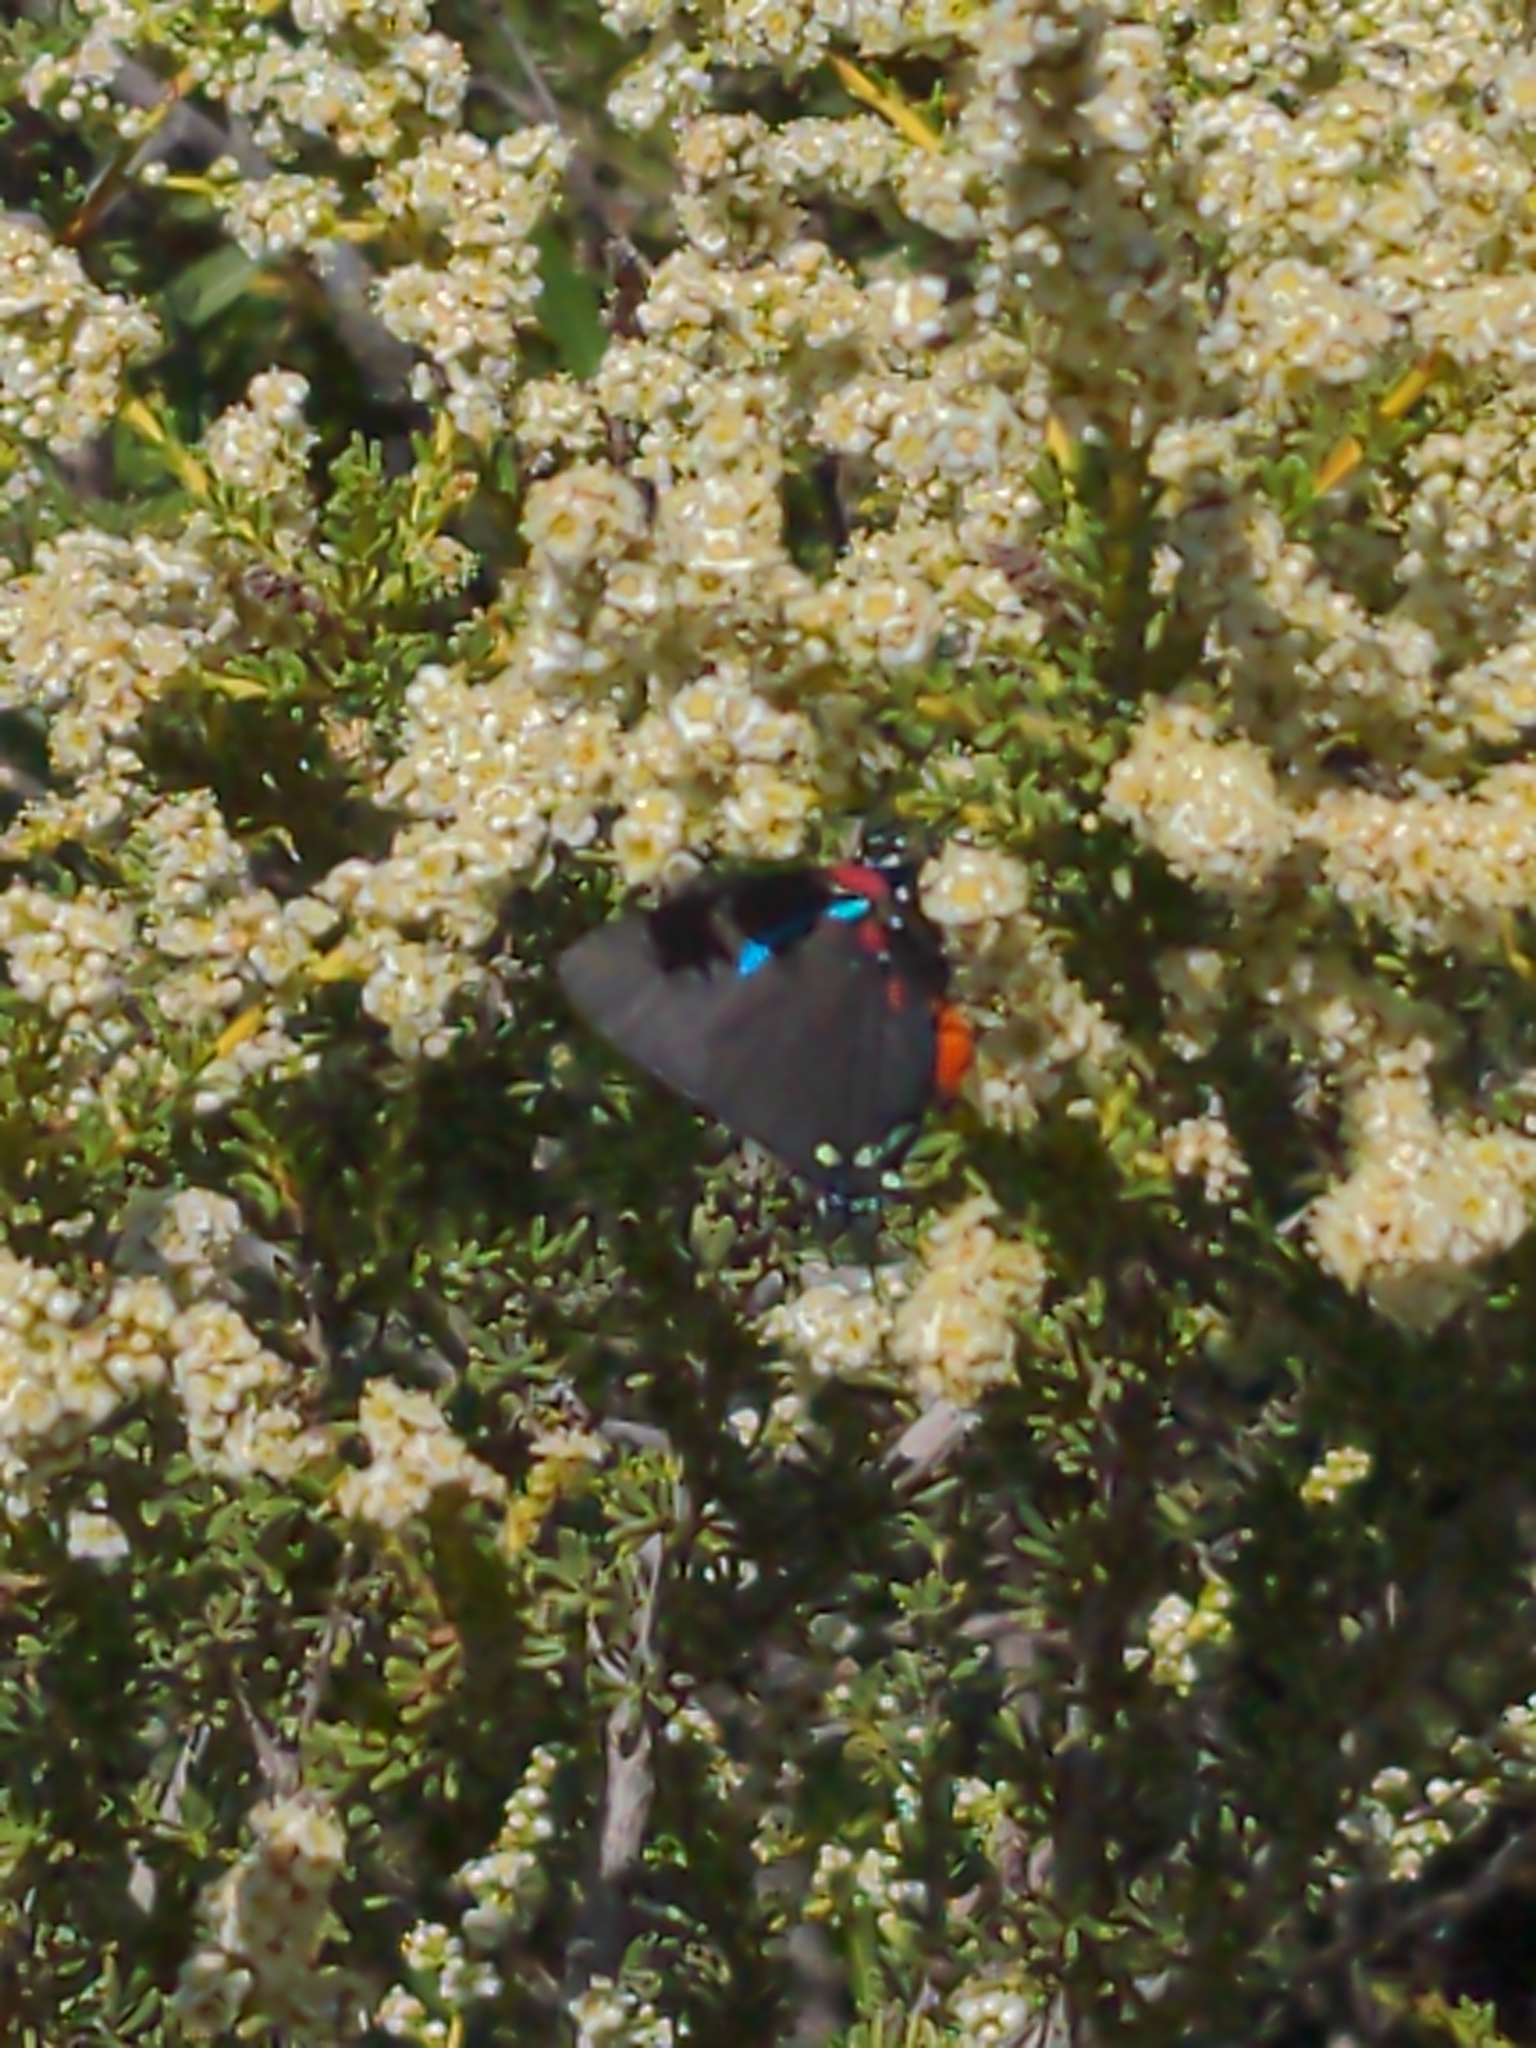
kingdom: Animalia
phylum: Arthropoda
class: Insecta
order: Lepidoptera
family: Lycaenidae
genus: Atlides
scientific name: Atlides halesus
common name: Great purple hairstreak
